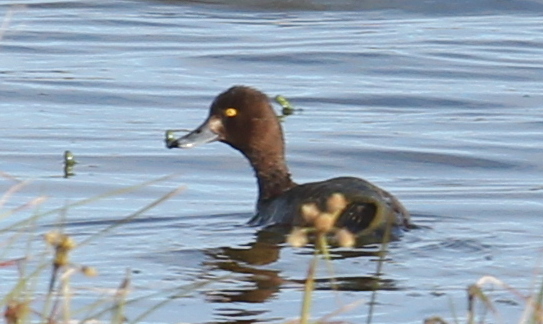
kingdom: Animalia
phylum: Chordata
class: Aves
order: Anseriformes
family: Anatidae
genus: Aythya
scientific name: Aythya fuligula
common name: Tufted duck
